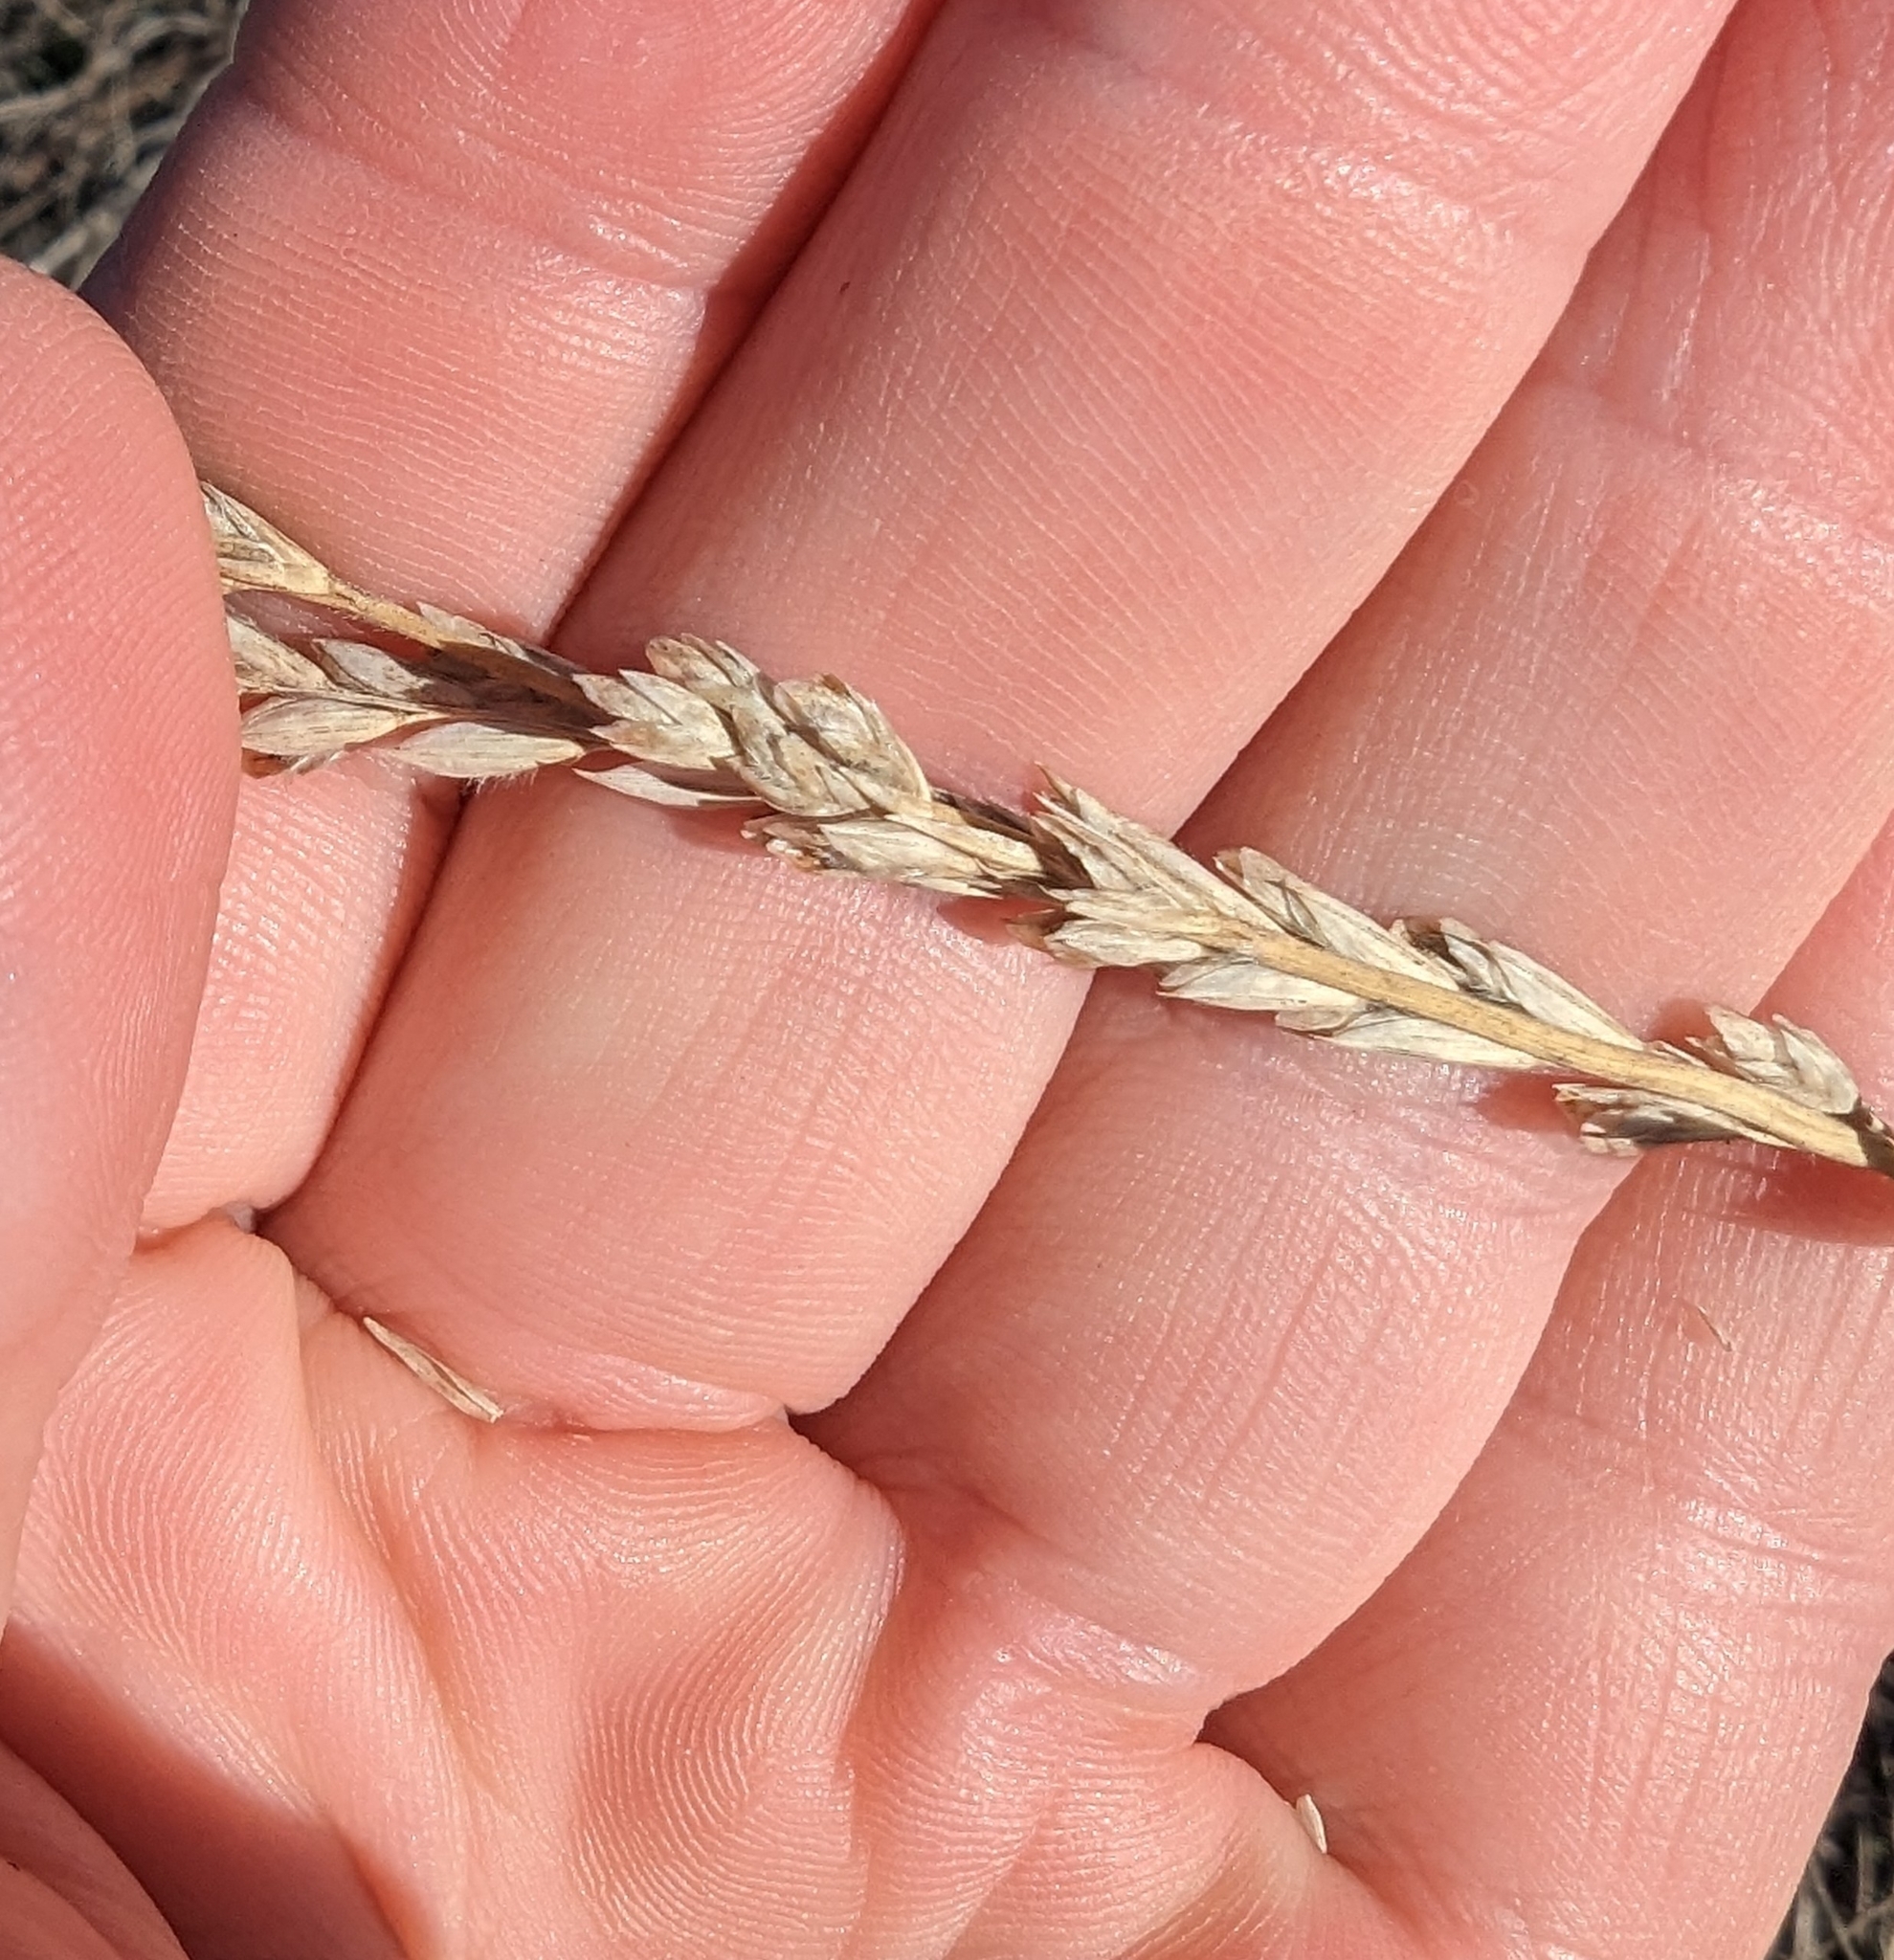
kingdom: Plantae
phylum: Tracheophyta
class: Liliopsida
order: Poales
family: Poaceae
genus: Tridens
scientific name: Tridens albescens
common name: White tridens
